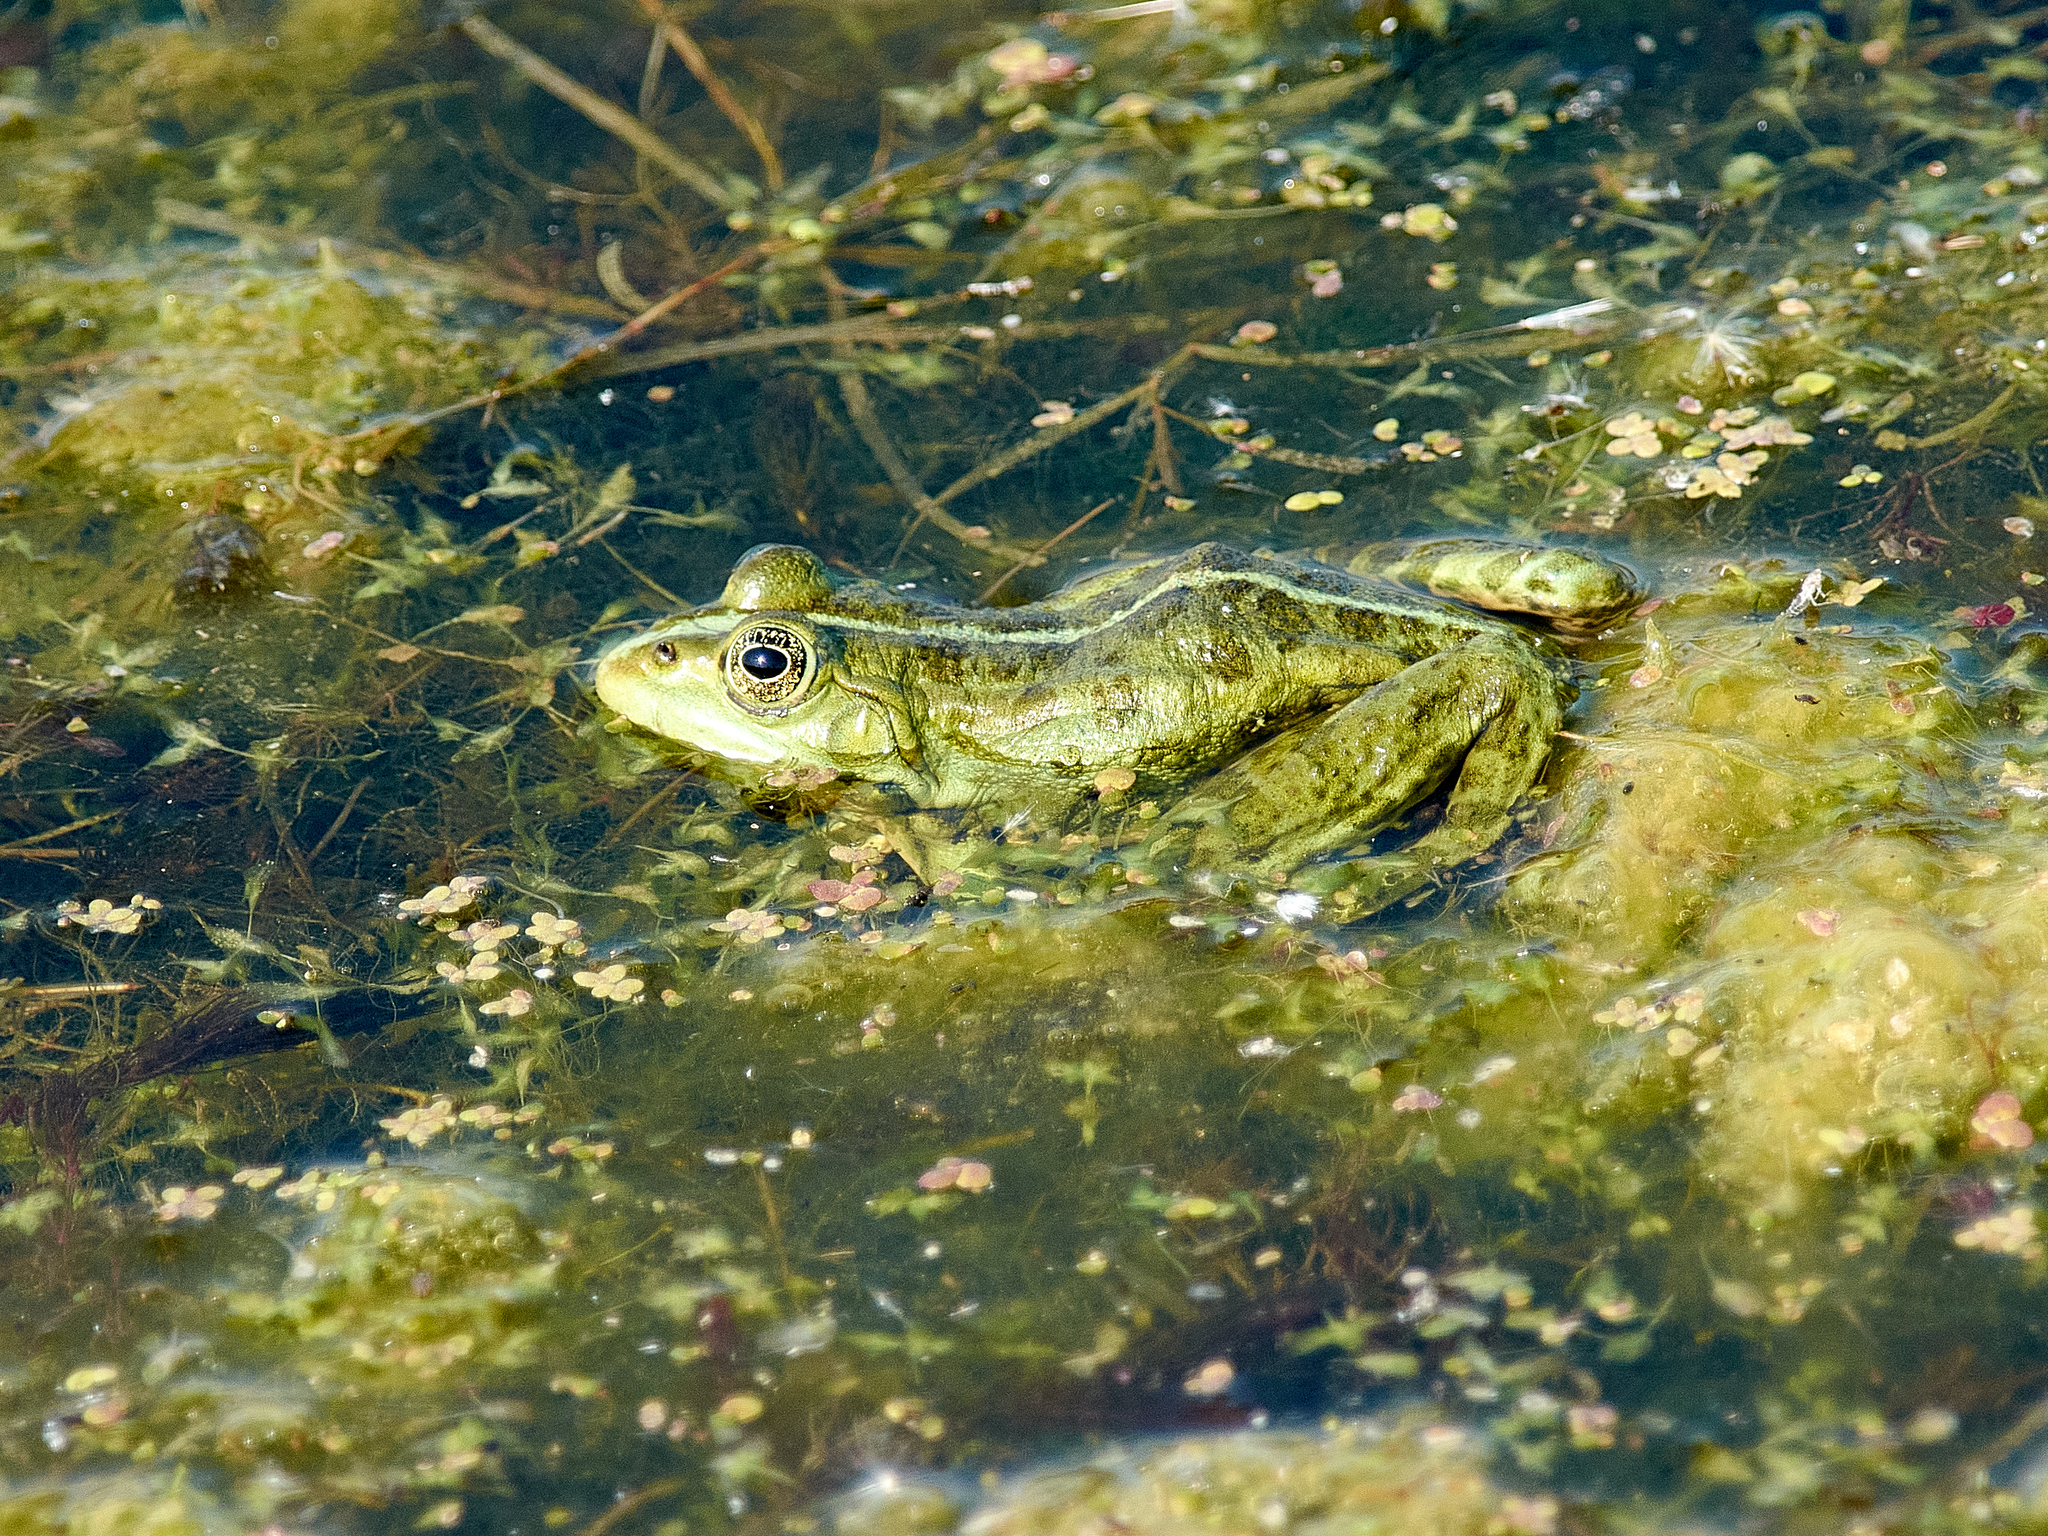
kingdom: Animalia
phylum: Chordata
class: Amphibia
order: Anura
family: Ranidae
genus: Pelophylax
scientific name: Pelophylax ridibundus
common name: Marsh frog
